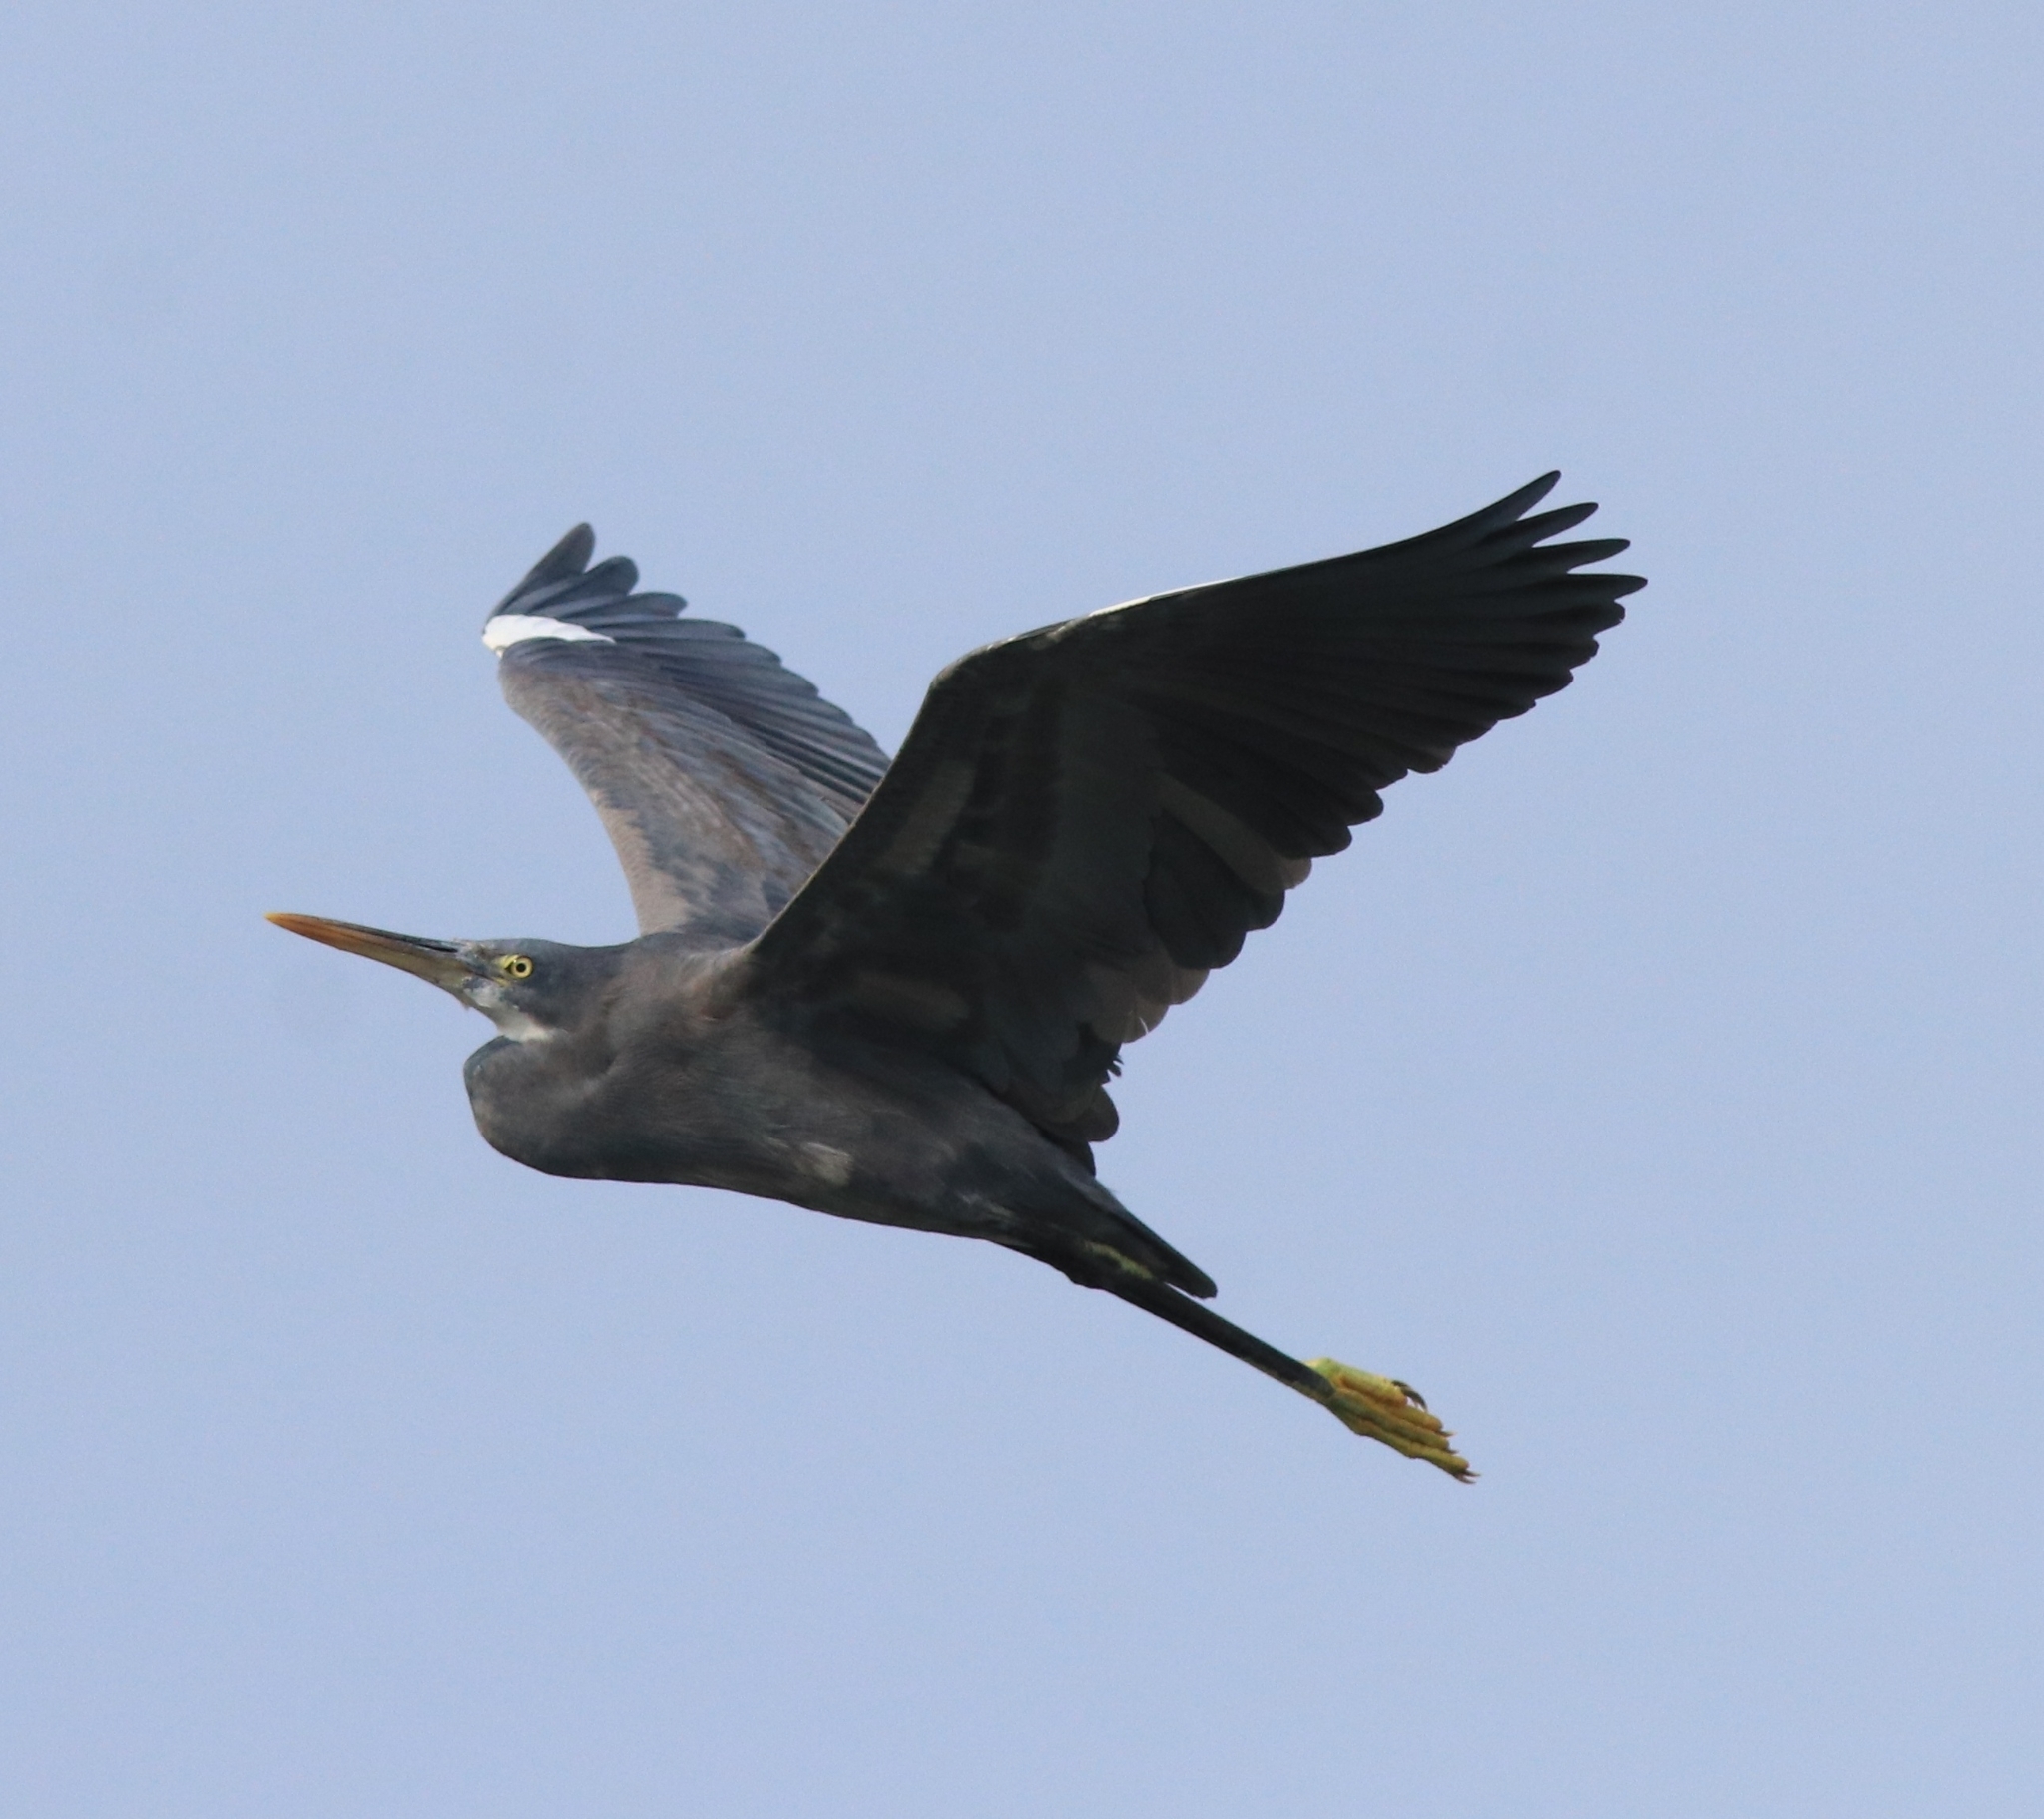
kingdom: Animalia
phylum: Chordata
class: Aves
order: Pelecaniformes
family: Ardeidae
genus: Egretta
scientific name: Egretta gularis
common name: Western reef-heron
